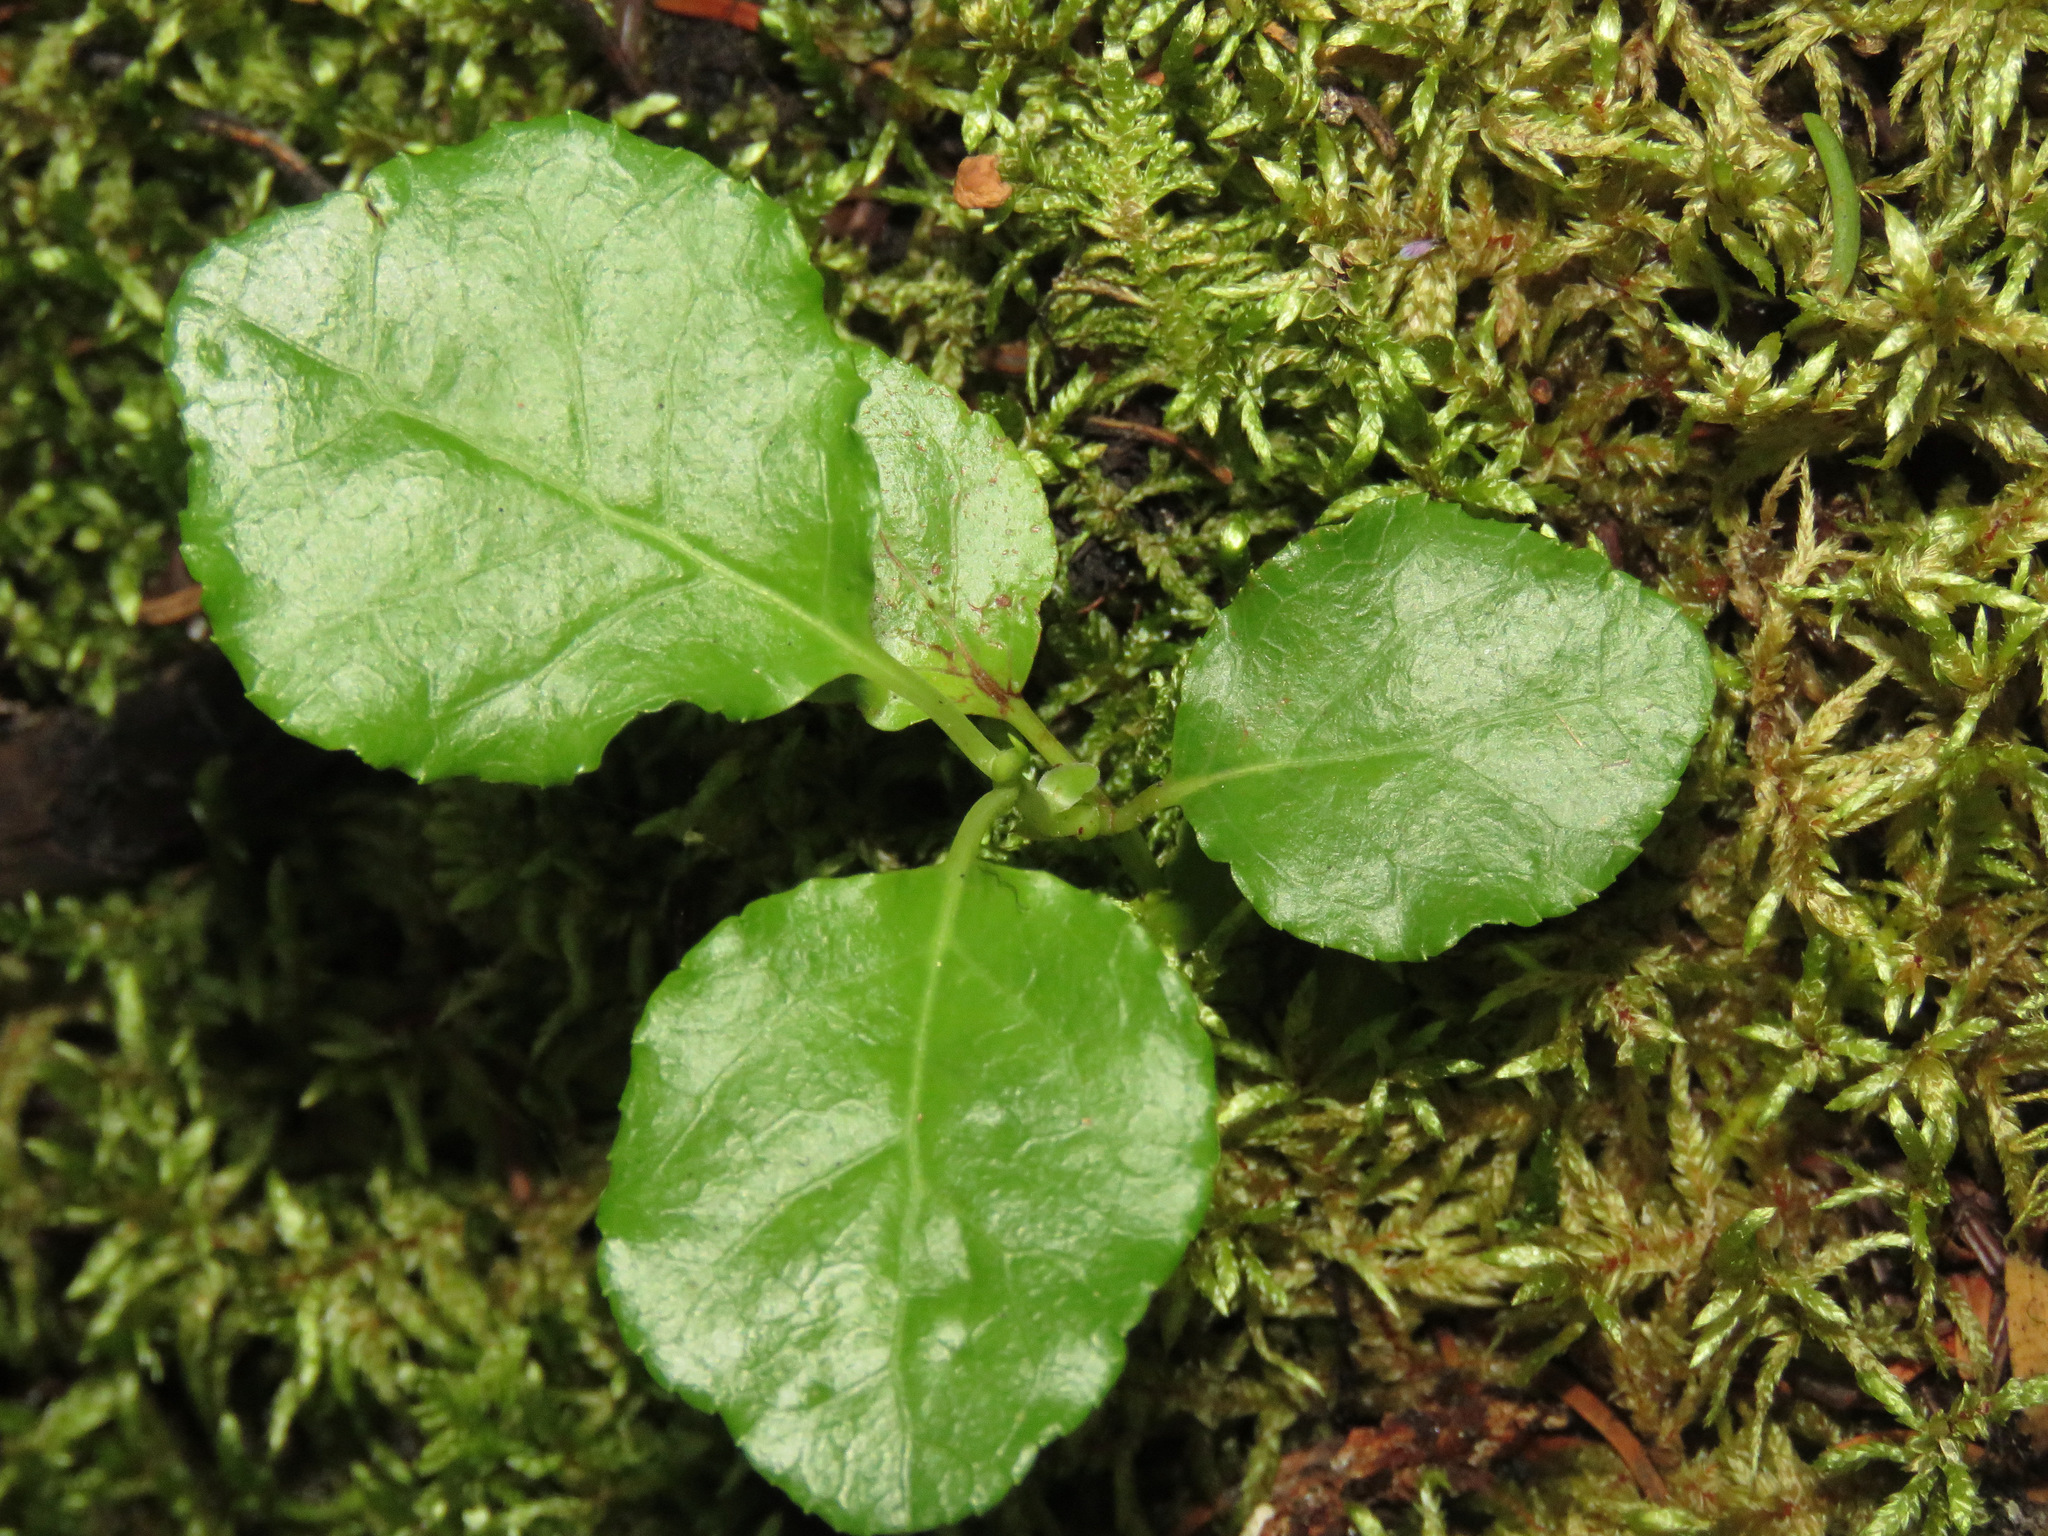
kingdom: Plantae
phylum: Tracheophyta
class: Magnoliopsida
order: Ericales
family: Ericaceae
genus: Orthilia
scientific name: Orthilia secunda
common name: One-sided orthilia
